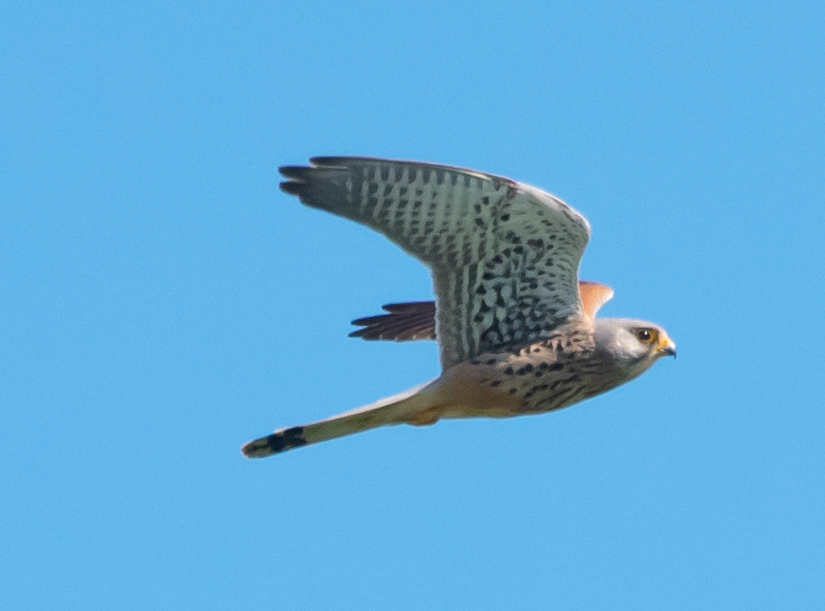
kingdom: Animalia
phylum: Chordata
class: Aves
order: Falconiformes
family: Falconidae
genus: Falco
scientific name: Falco tinnunculus
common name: Common kestrel
